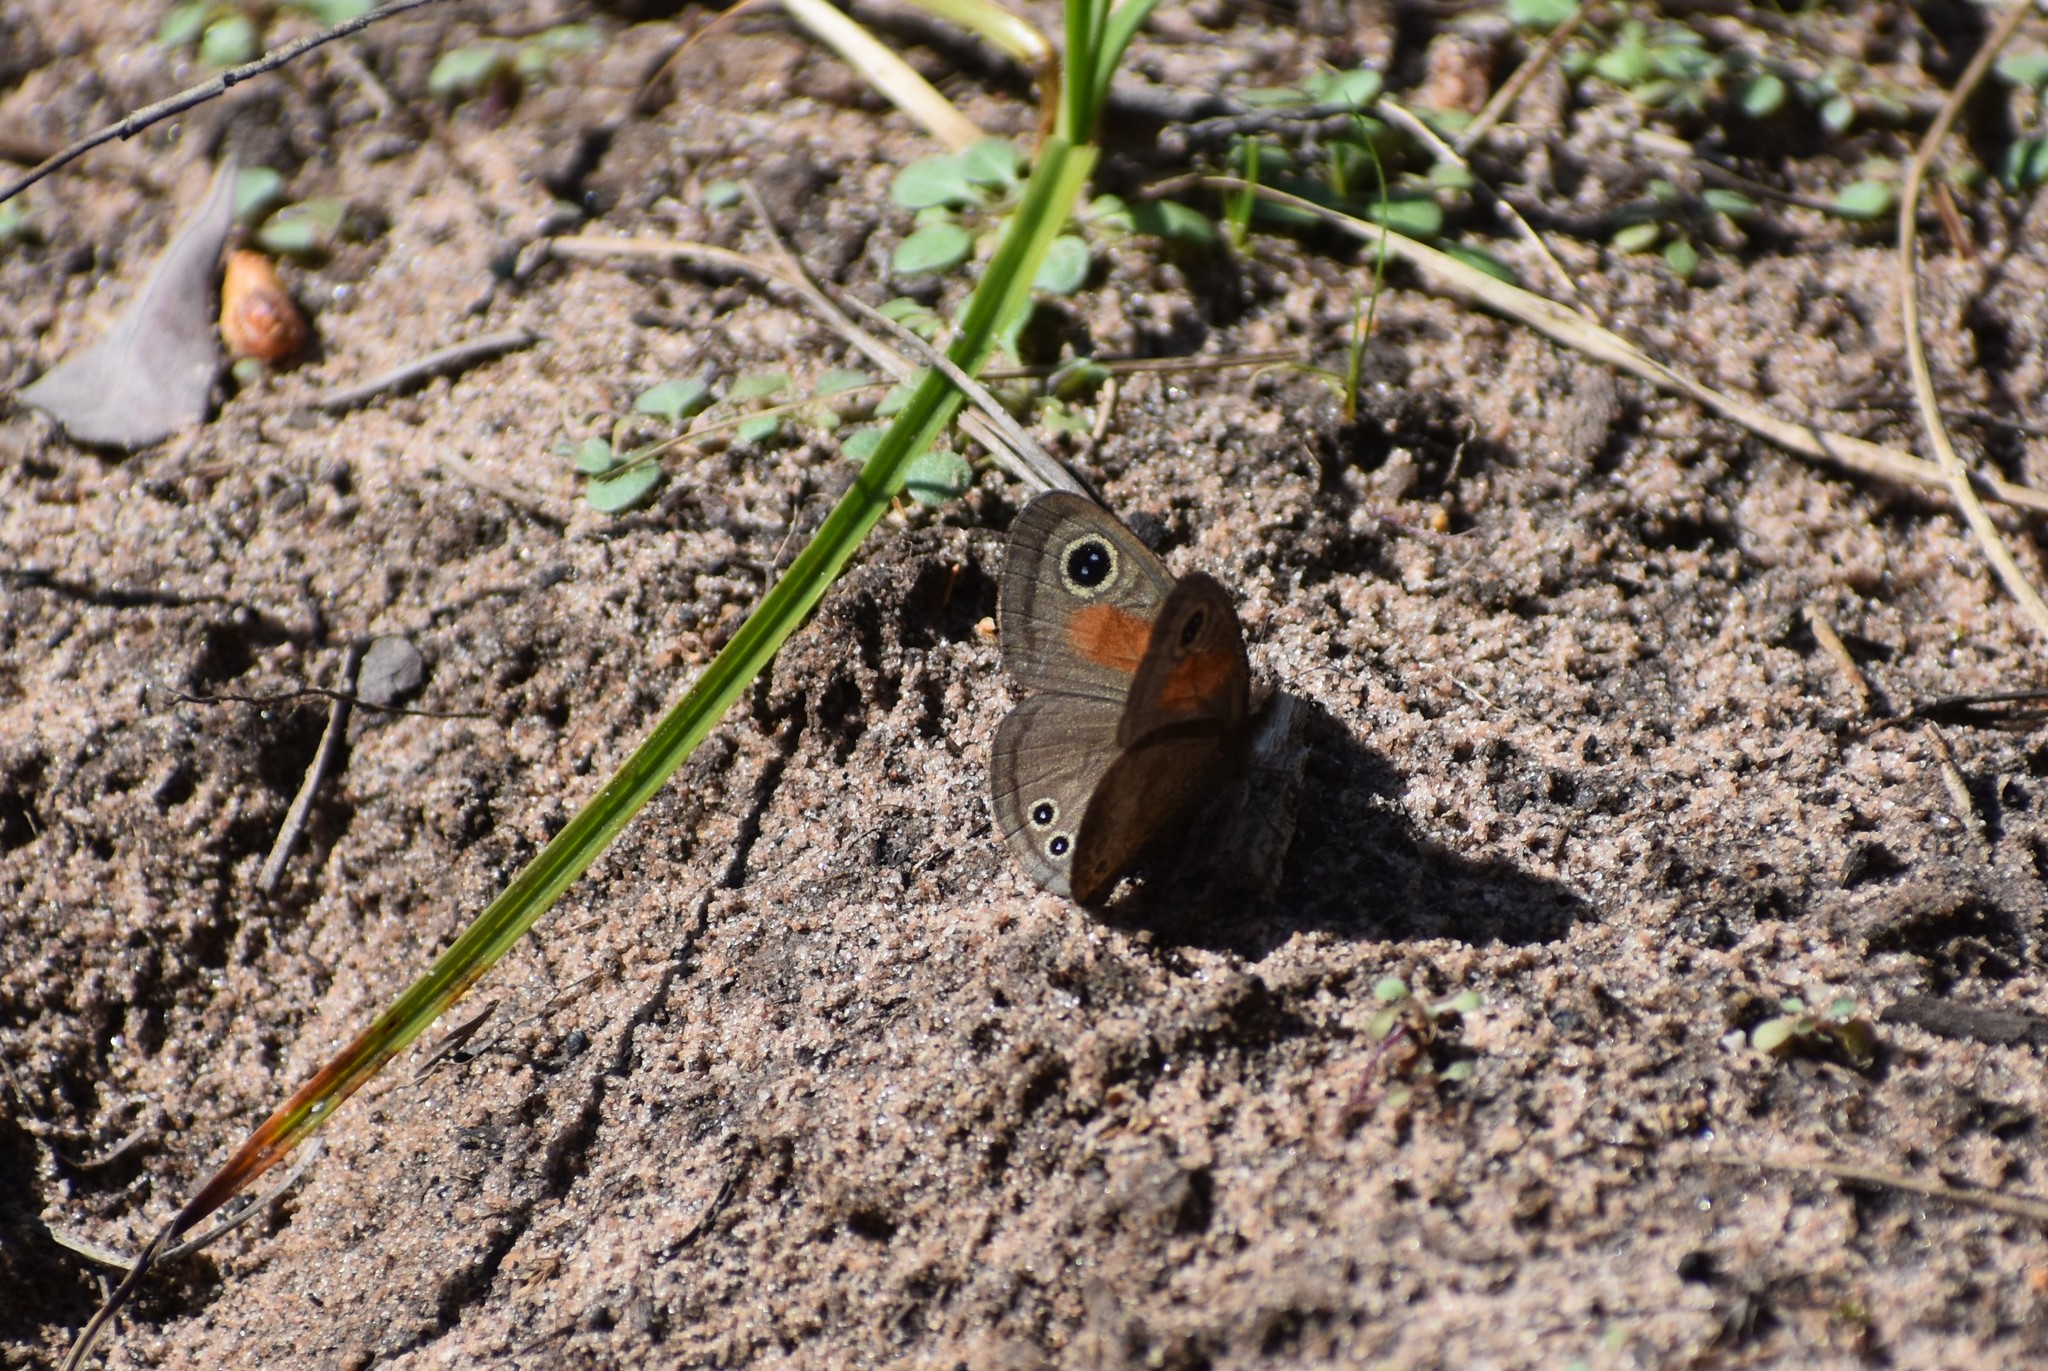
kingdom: Animalia
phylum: Arthropoda
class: Insecta
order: Lepidoptera
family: Nymphalidae
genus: Cassionympha
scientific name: Cassionympha cassius
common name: Rainforest brown
